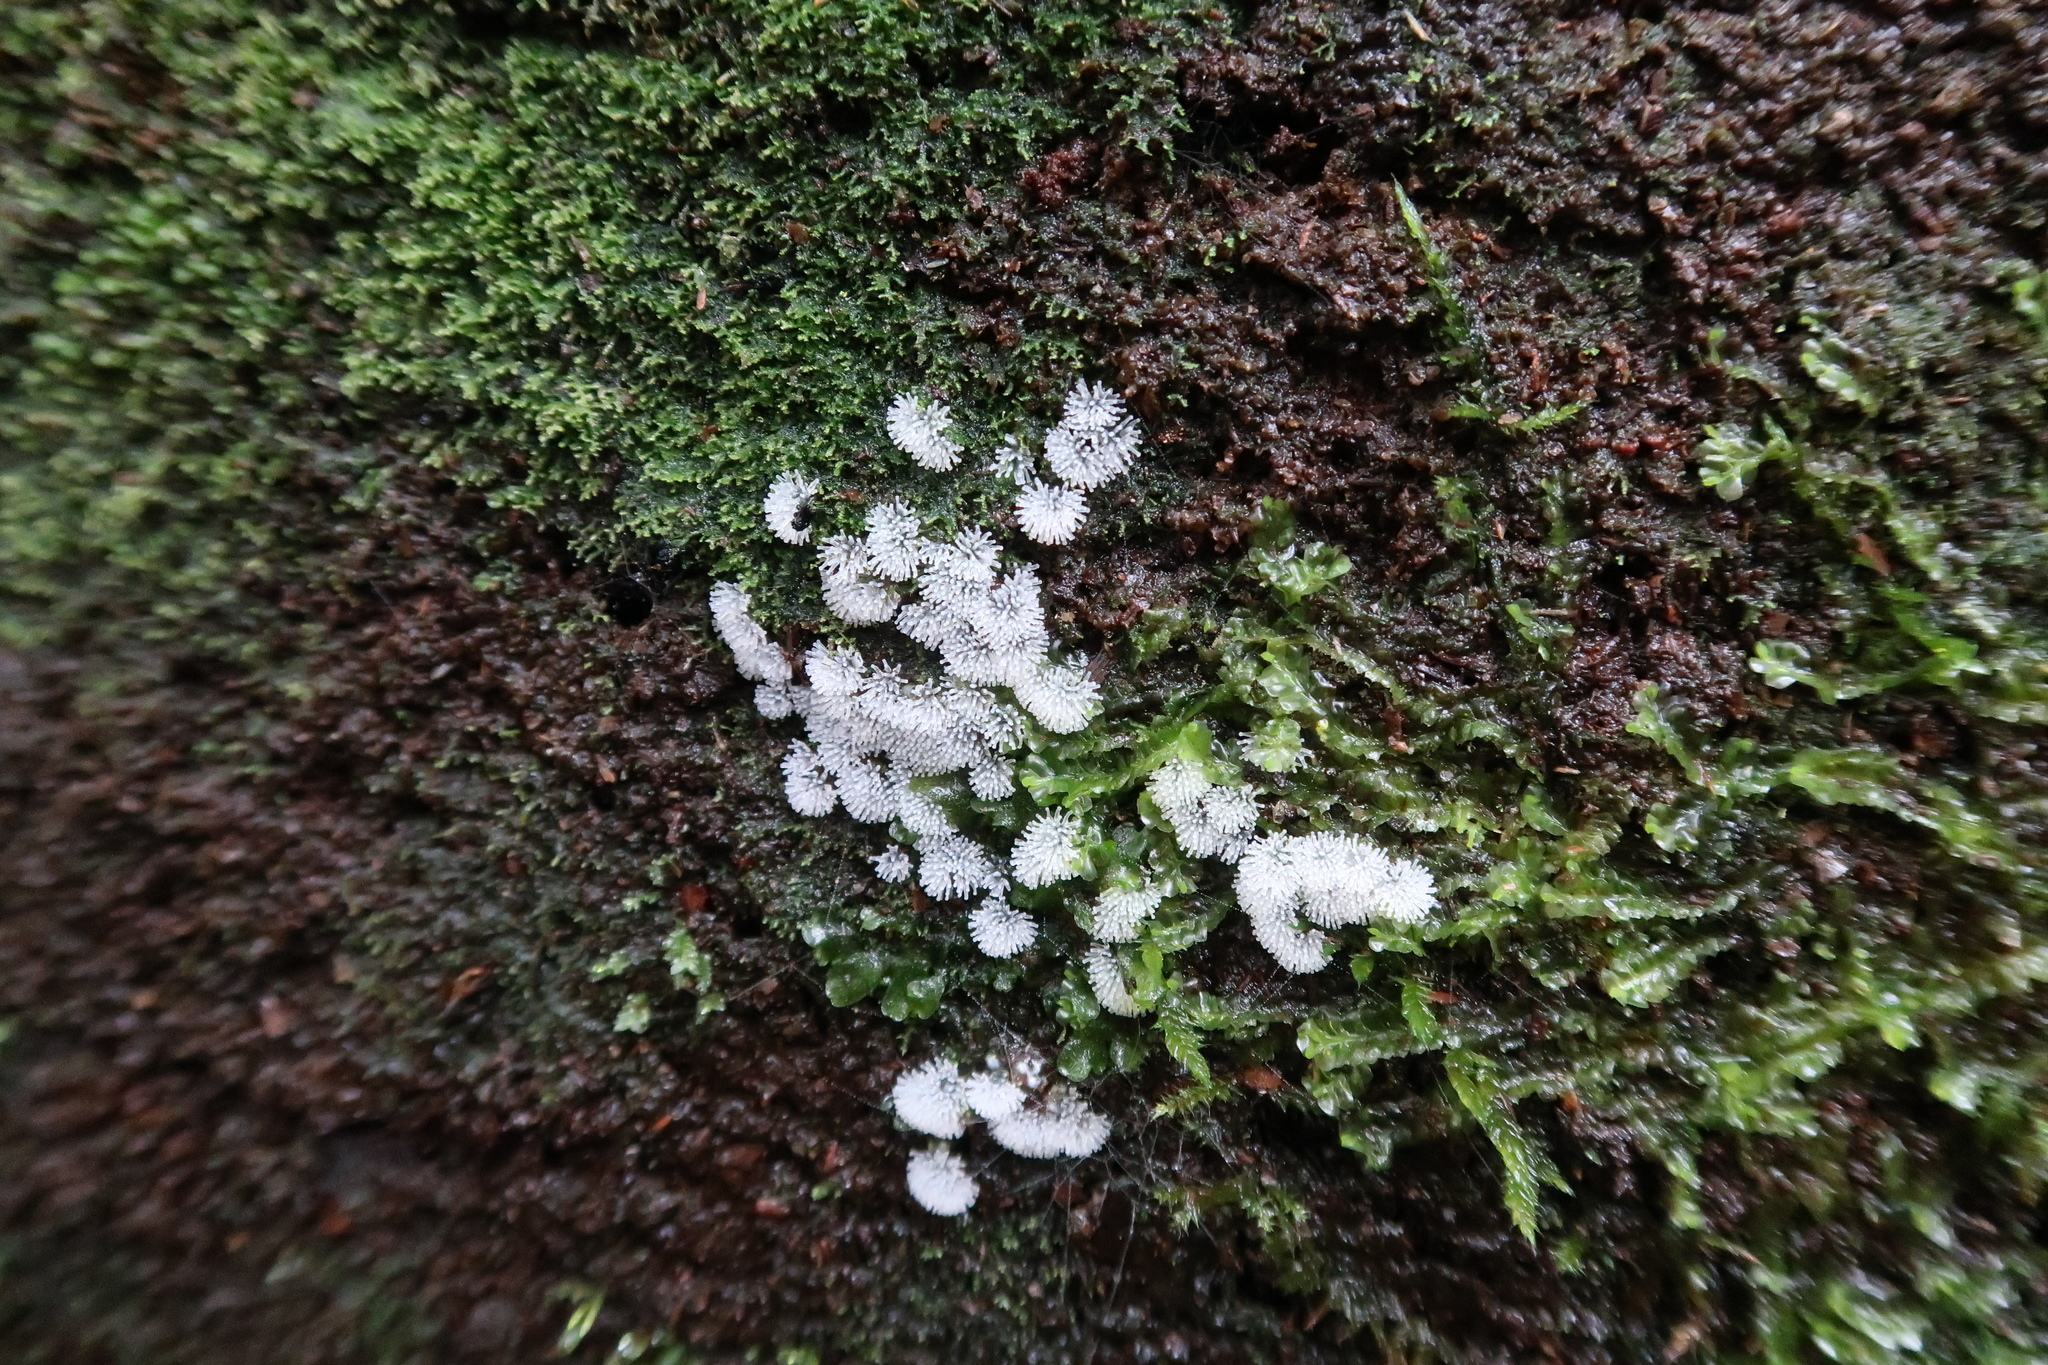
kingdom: Protozoa
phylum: Mycetozoa
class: Protosteliomycetes
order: Ceratiomyxales
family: Ceratiomyxaceae
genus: Ceratiomyxa
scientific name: Ceratiomyxa fruticulosa
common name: Honeycomb coral slime mold
